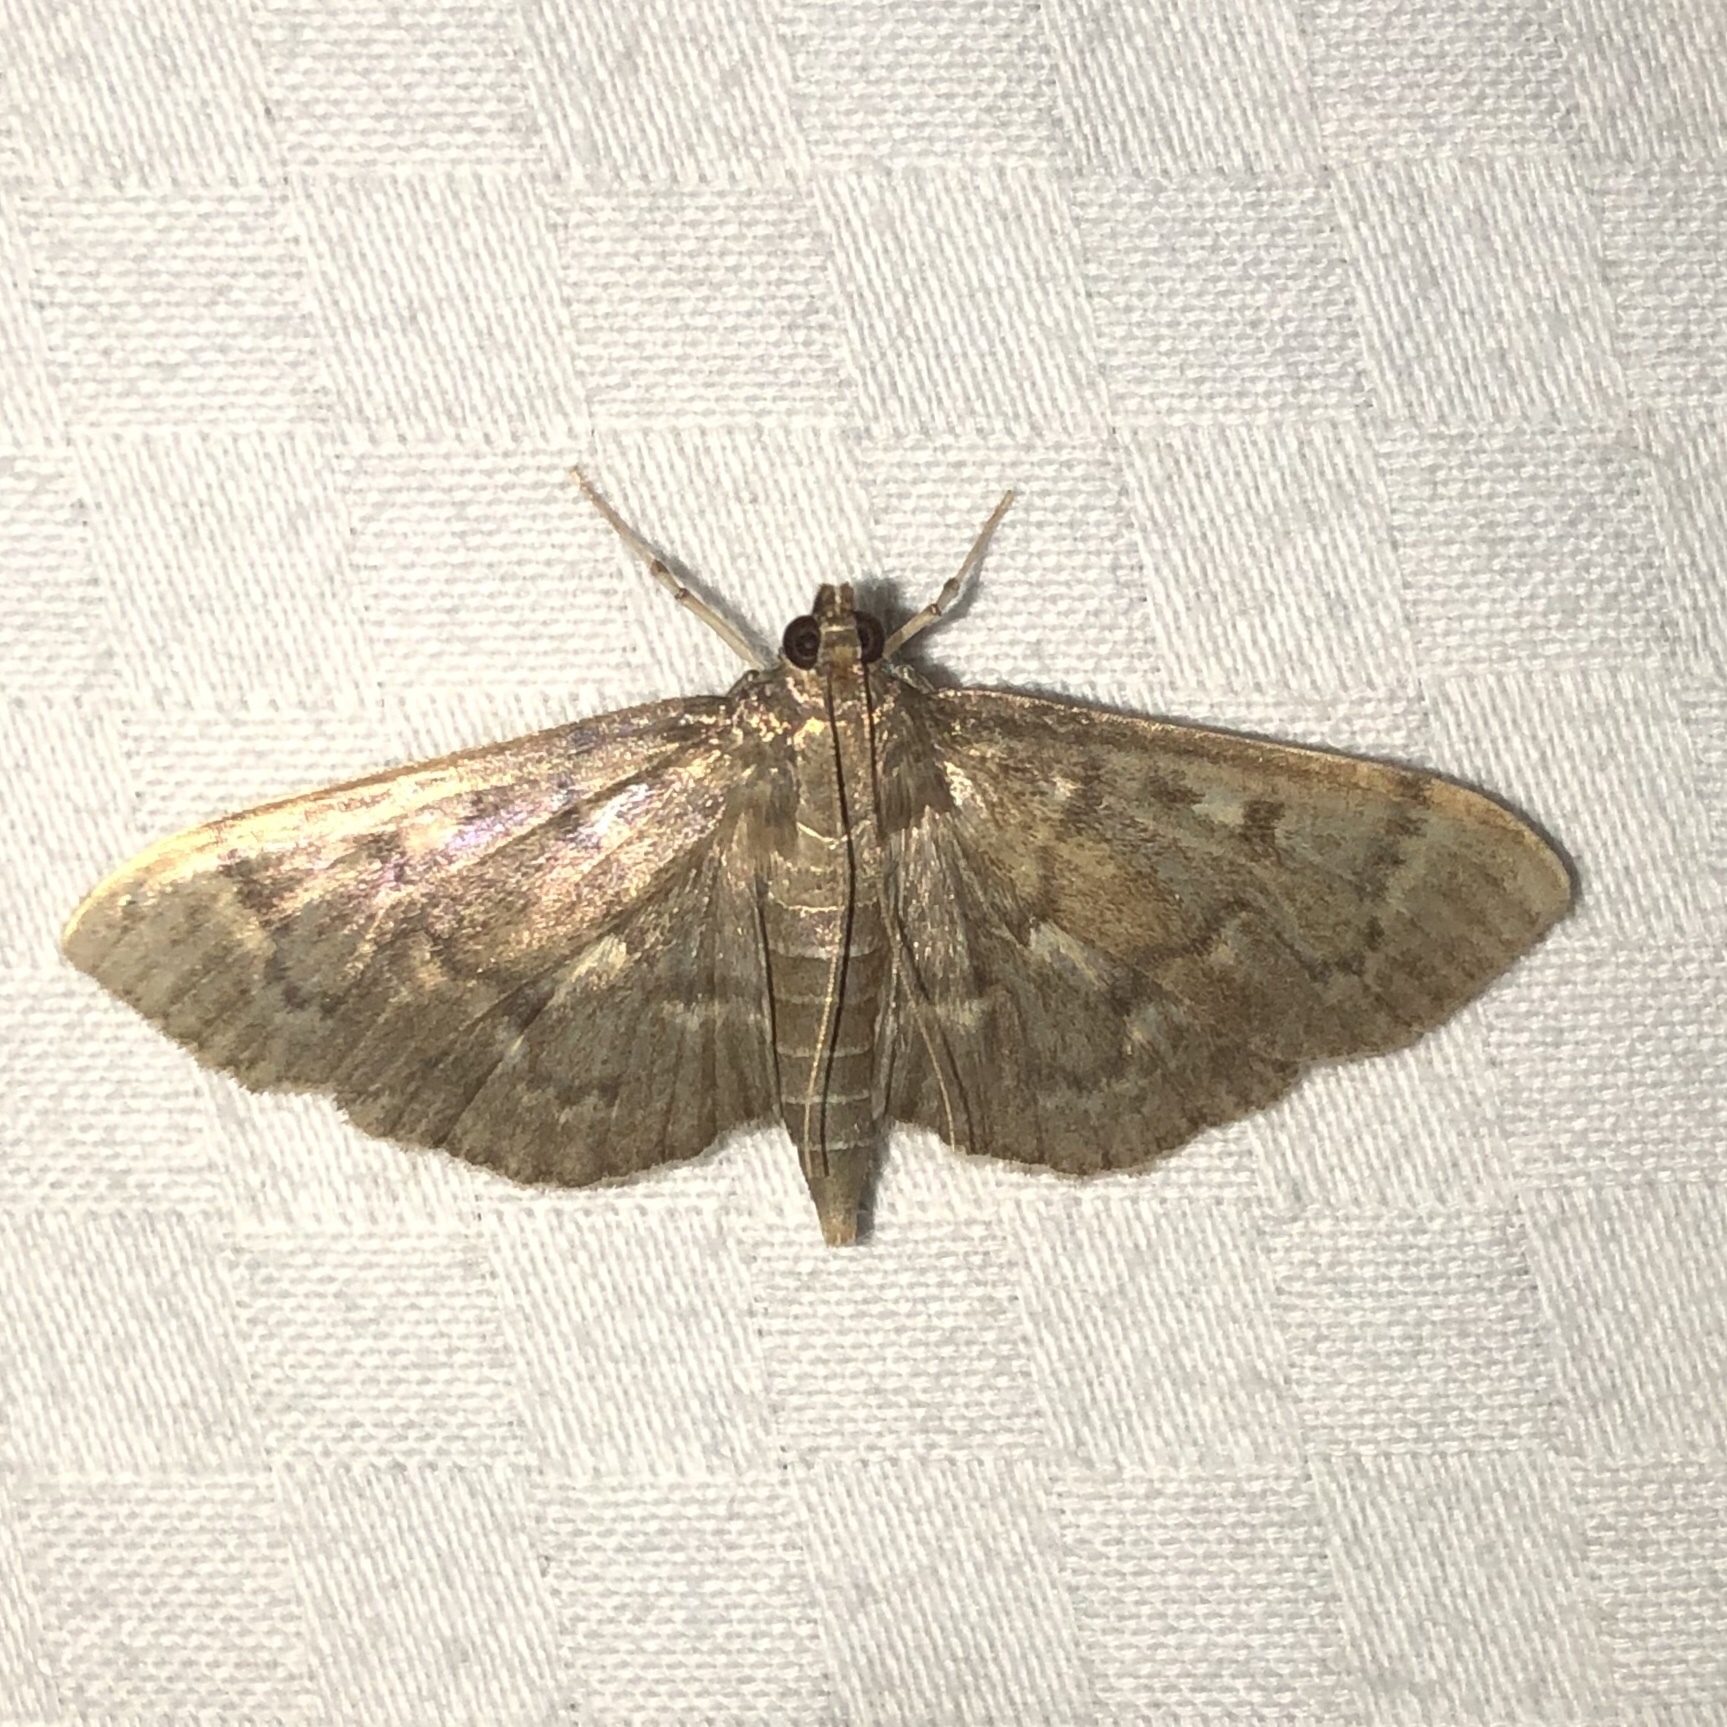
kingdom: Animalia
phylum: Arthropoda
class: Insecta
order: Lepidoptera
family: Crambidae
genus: Herpetogramma
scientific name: Herpetogramma aeglealis
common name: Serpentine webworm moth
